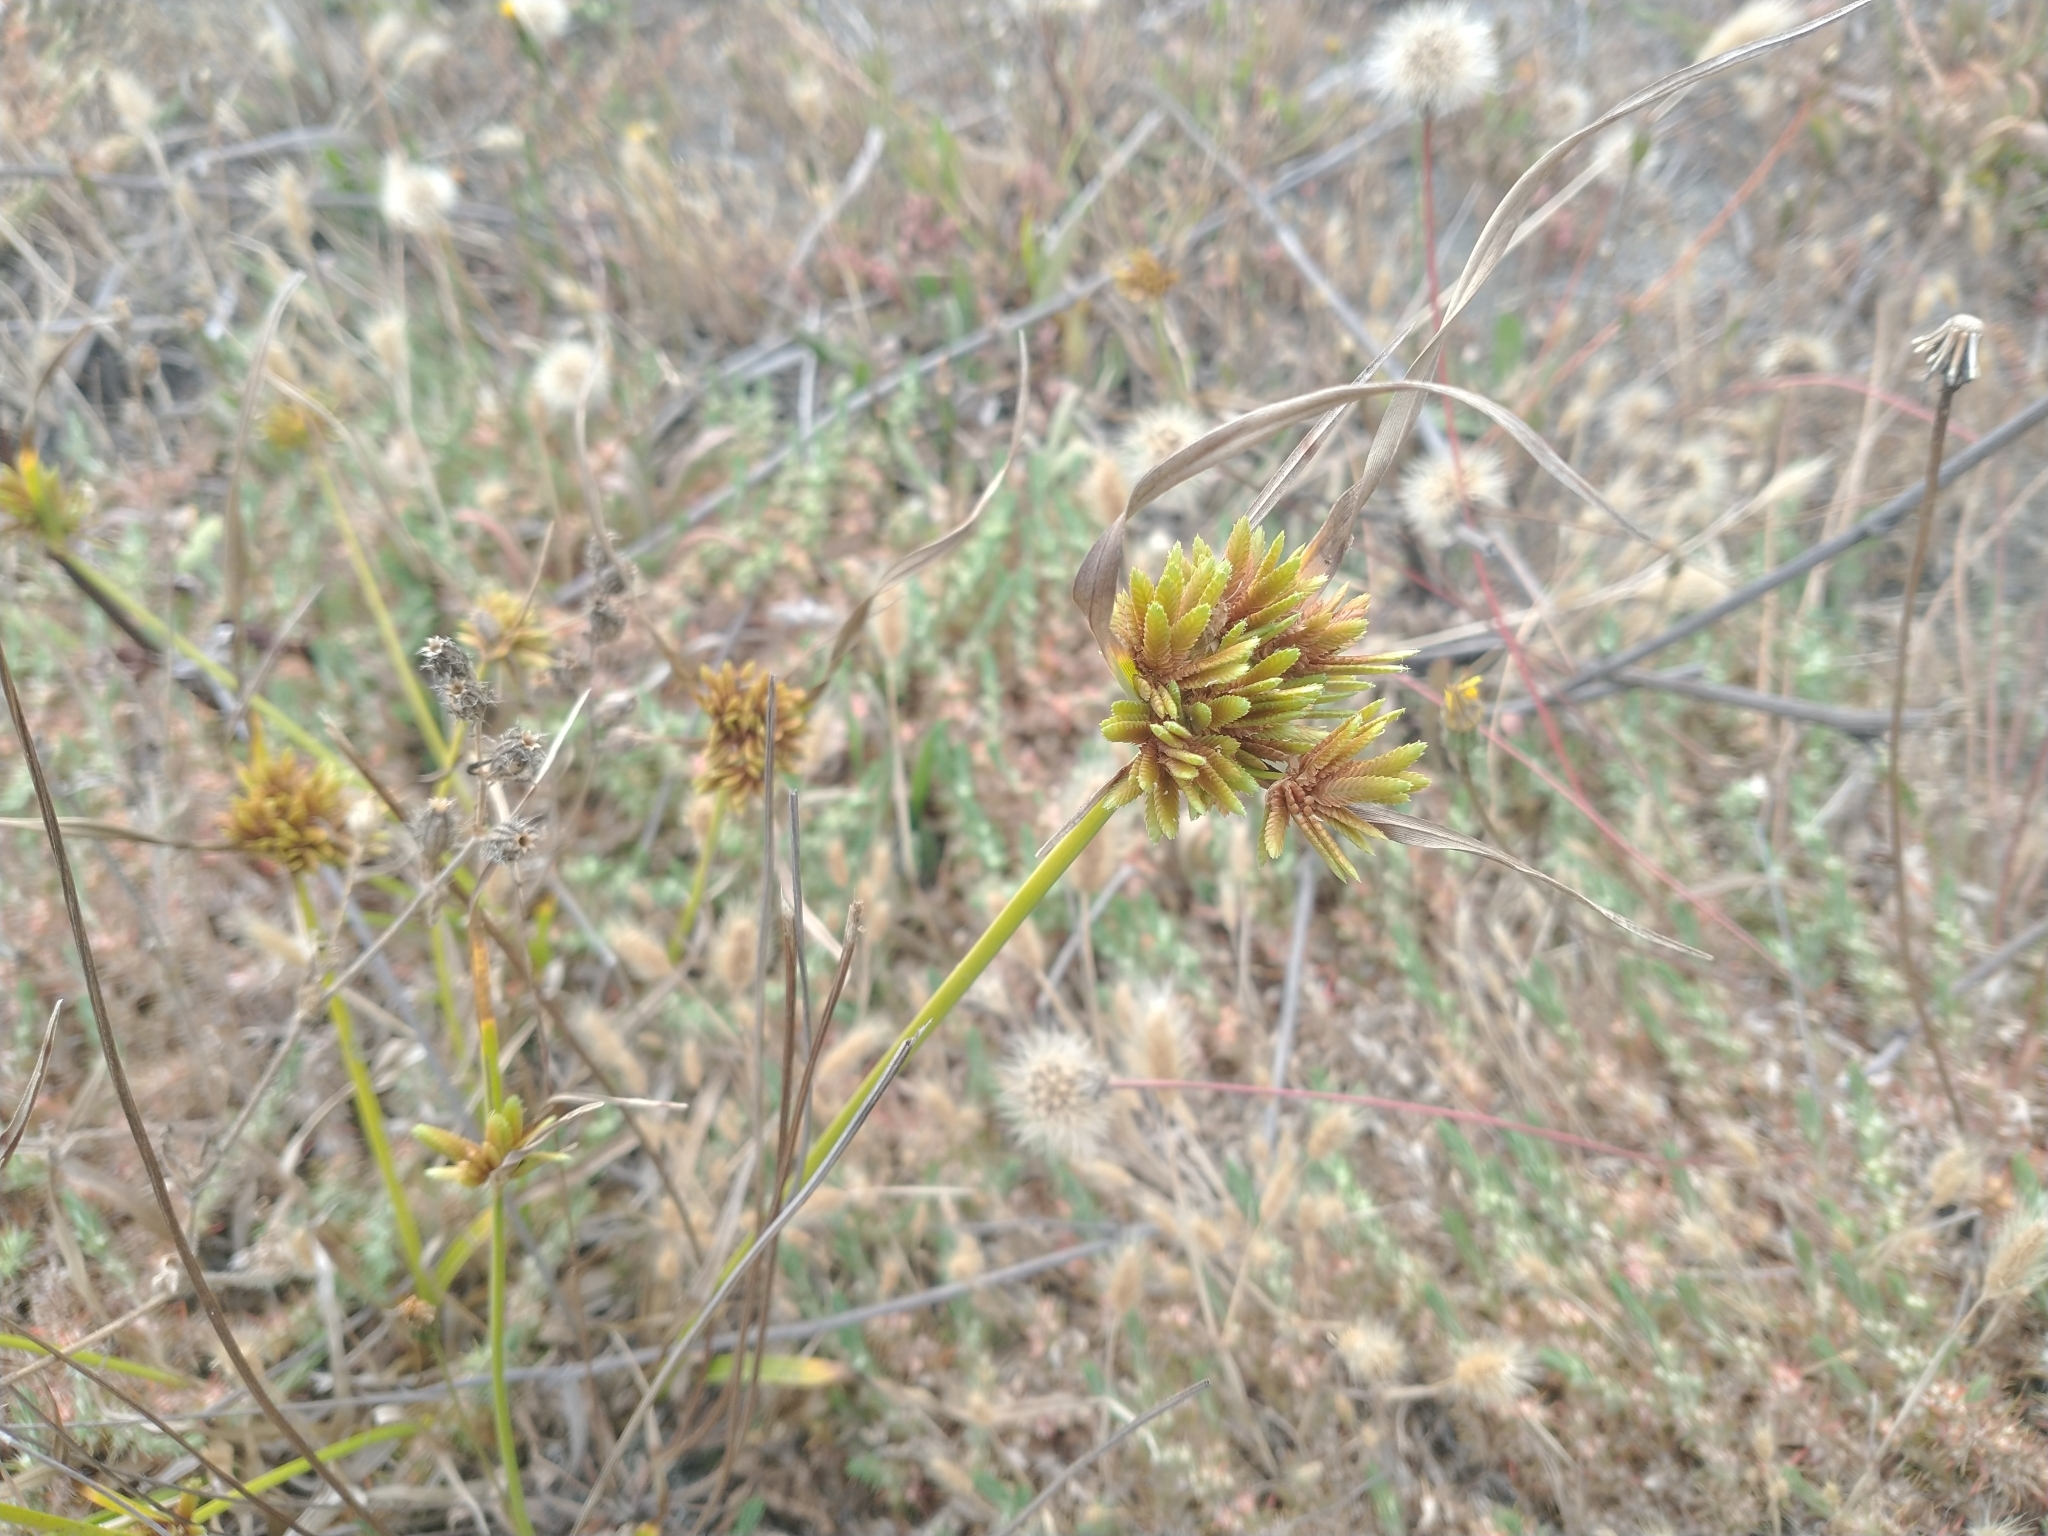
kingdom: Plantae
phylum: Tracheophyta
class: Liliopsida
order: Poales
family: Cyperaceae
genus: Cyperus
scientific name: Cyperus eragrostis
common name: Tall flatsedge
